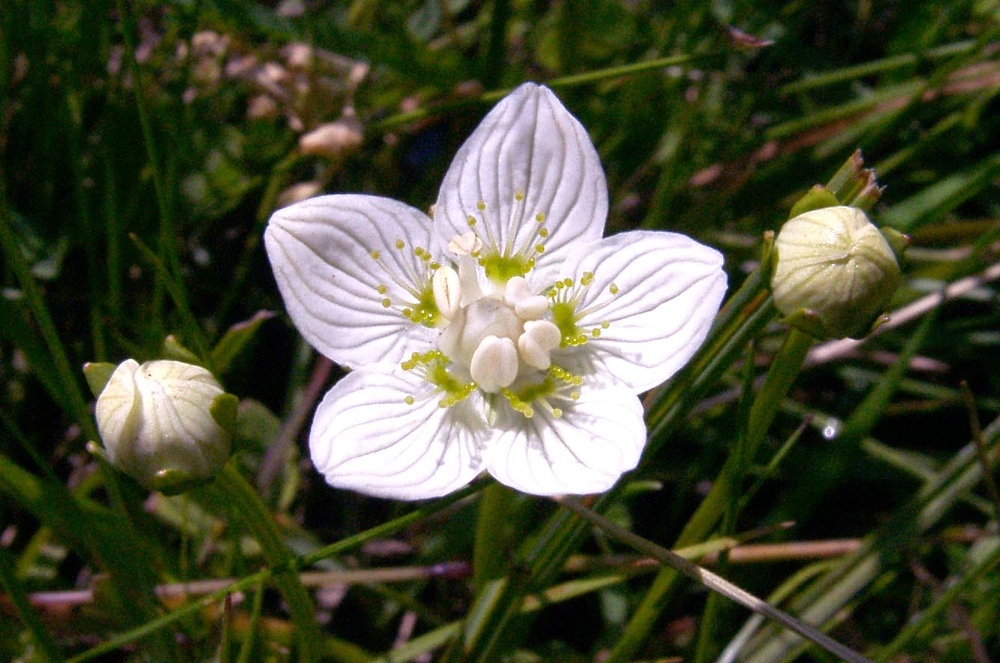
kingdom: Plantae
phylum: Tracheophyta
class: Magnoliopsida
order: Celastrales
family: Parnassiaceae
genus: Parnassia
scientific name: Parnassia palustris
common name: Grass-of-parnassus
